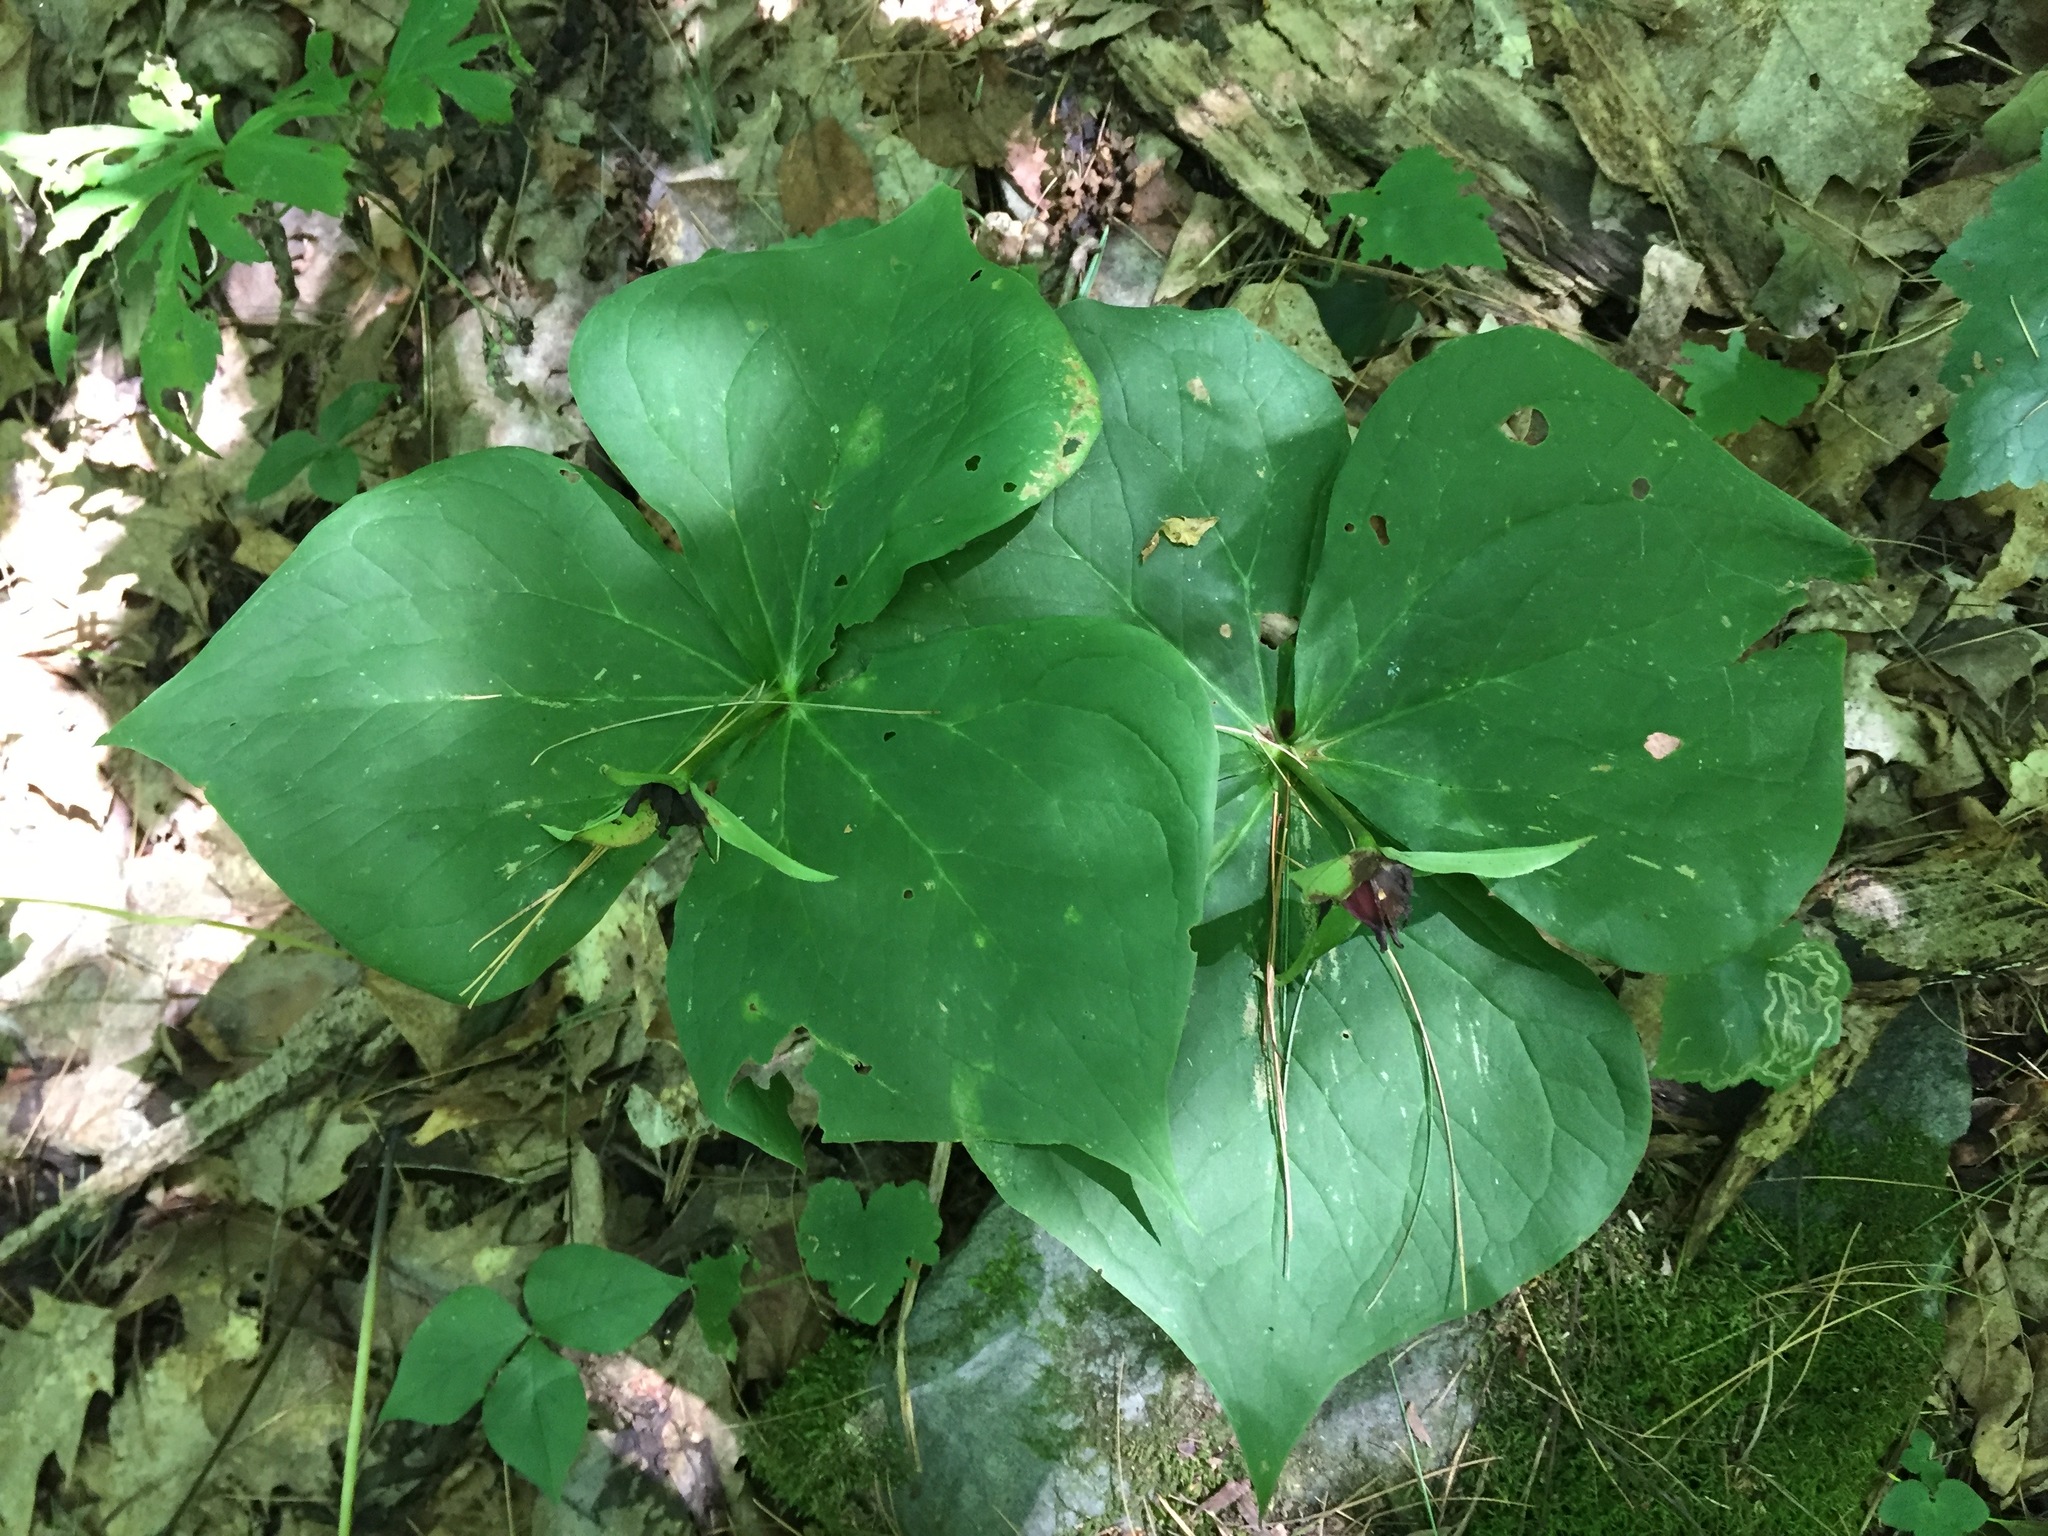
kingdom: Plantae
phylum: Tracheophyta
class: Liliopsida
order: Liliales
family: Melanthiaceae
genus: Trillium
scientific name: Trillium erectum
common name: Purple trillium
